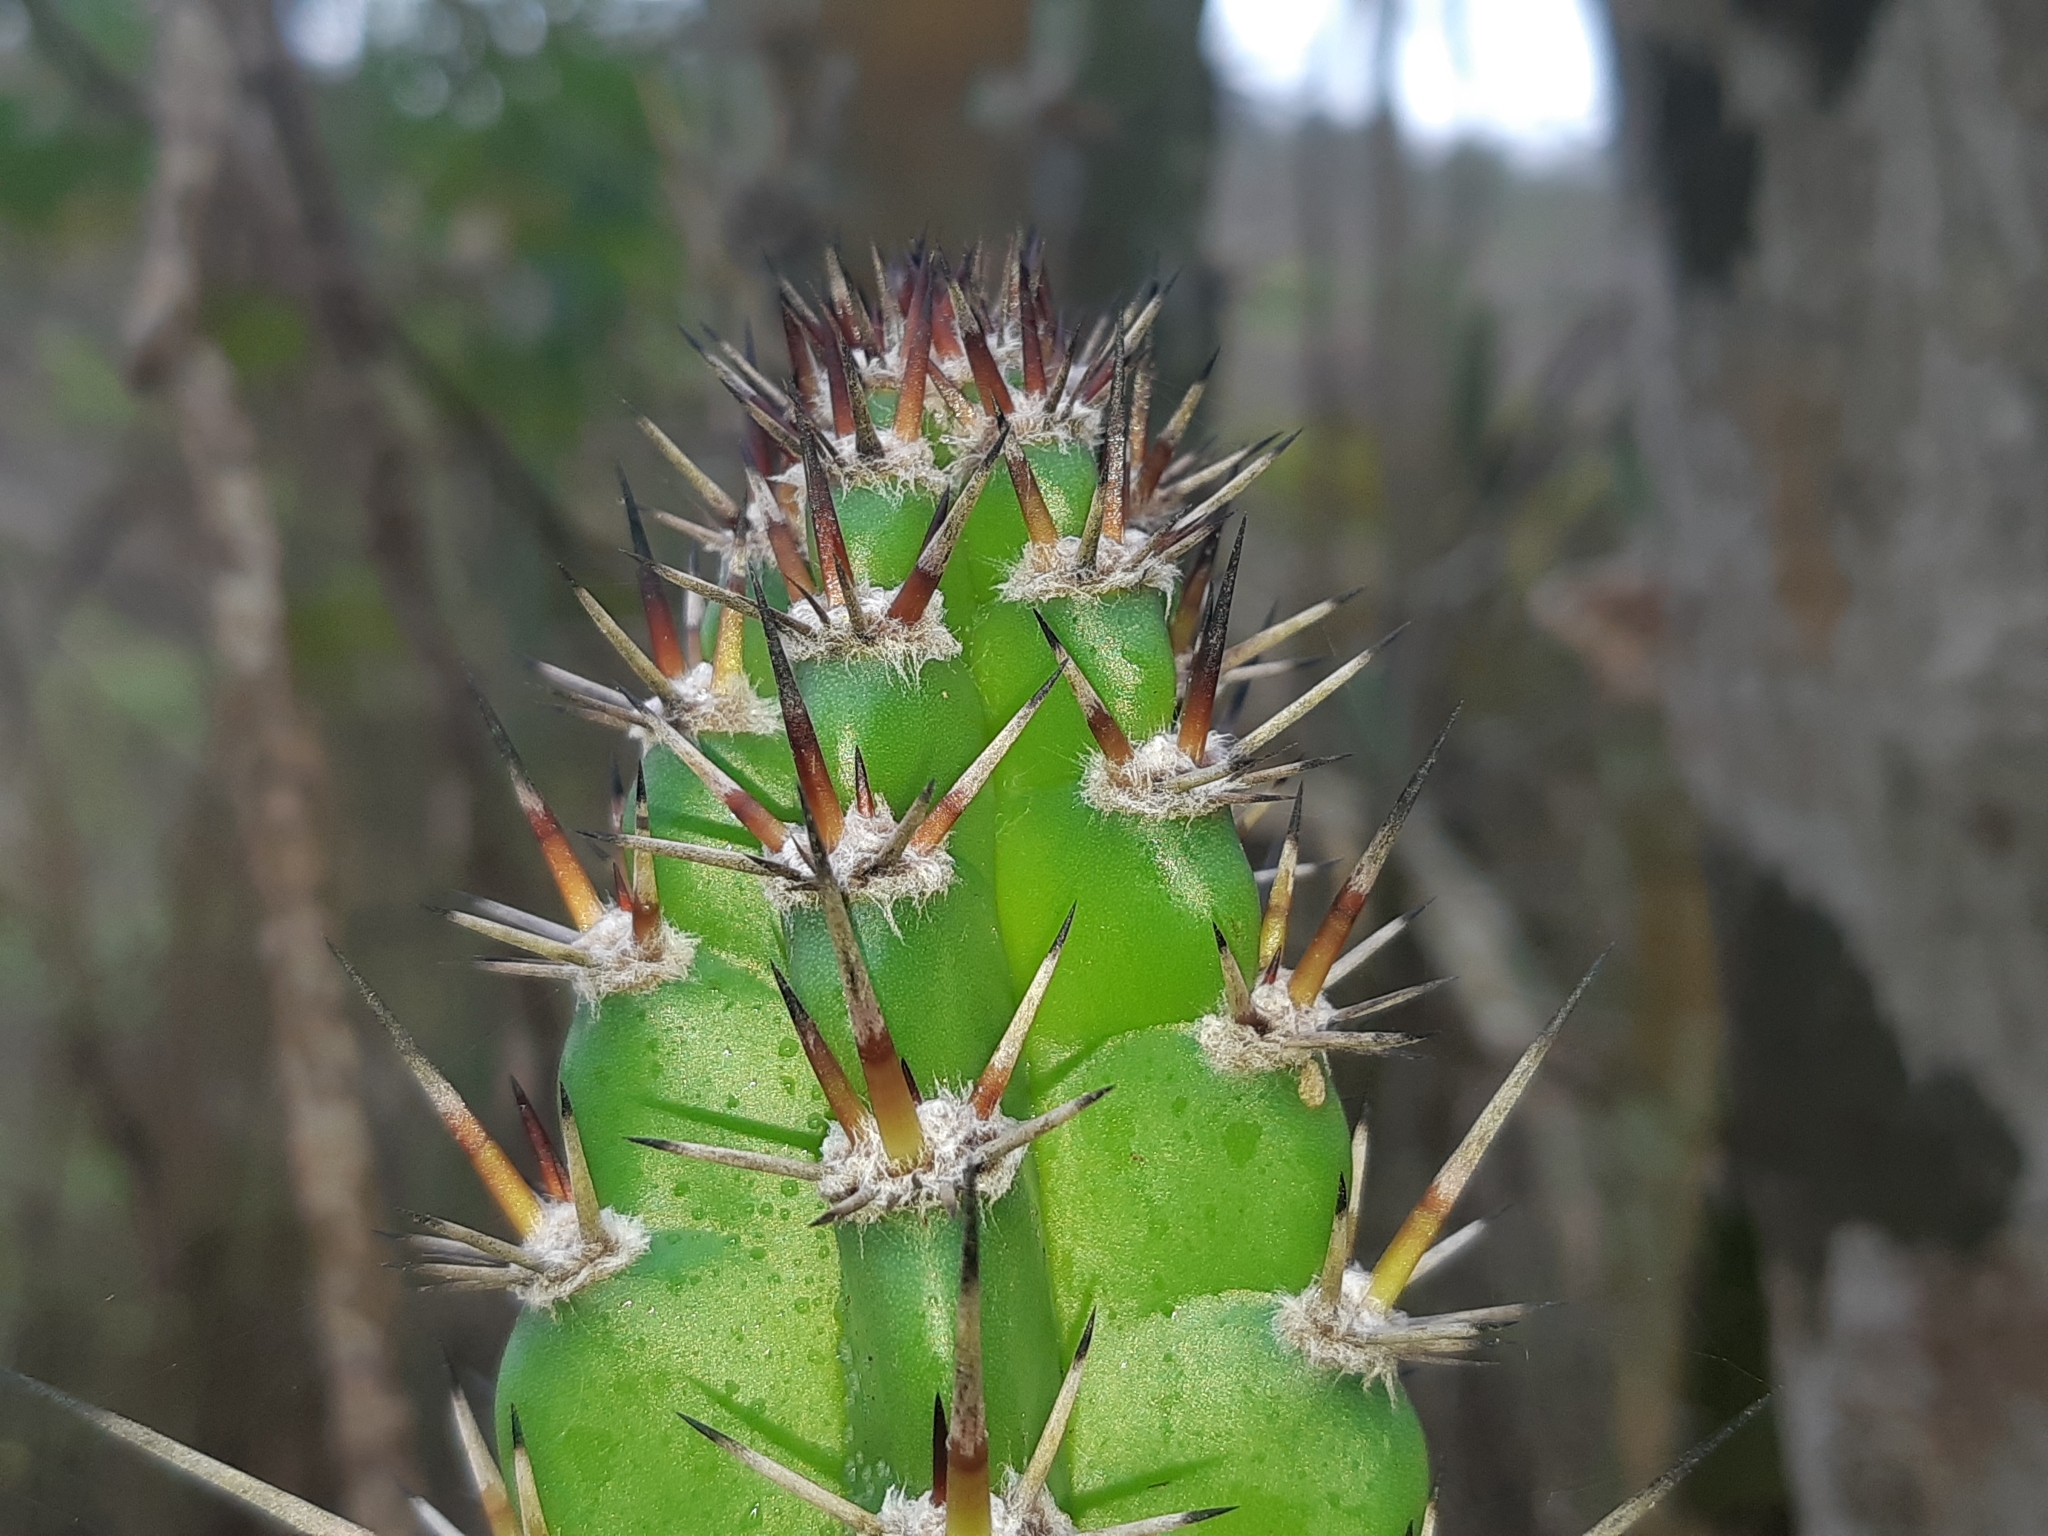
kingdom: Plantae
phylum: Tracheophyta
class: Magnoliopsida
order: Caryophyllales
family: Cactaceae
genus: Praecereus
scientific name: Praecereus euchlorus
